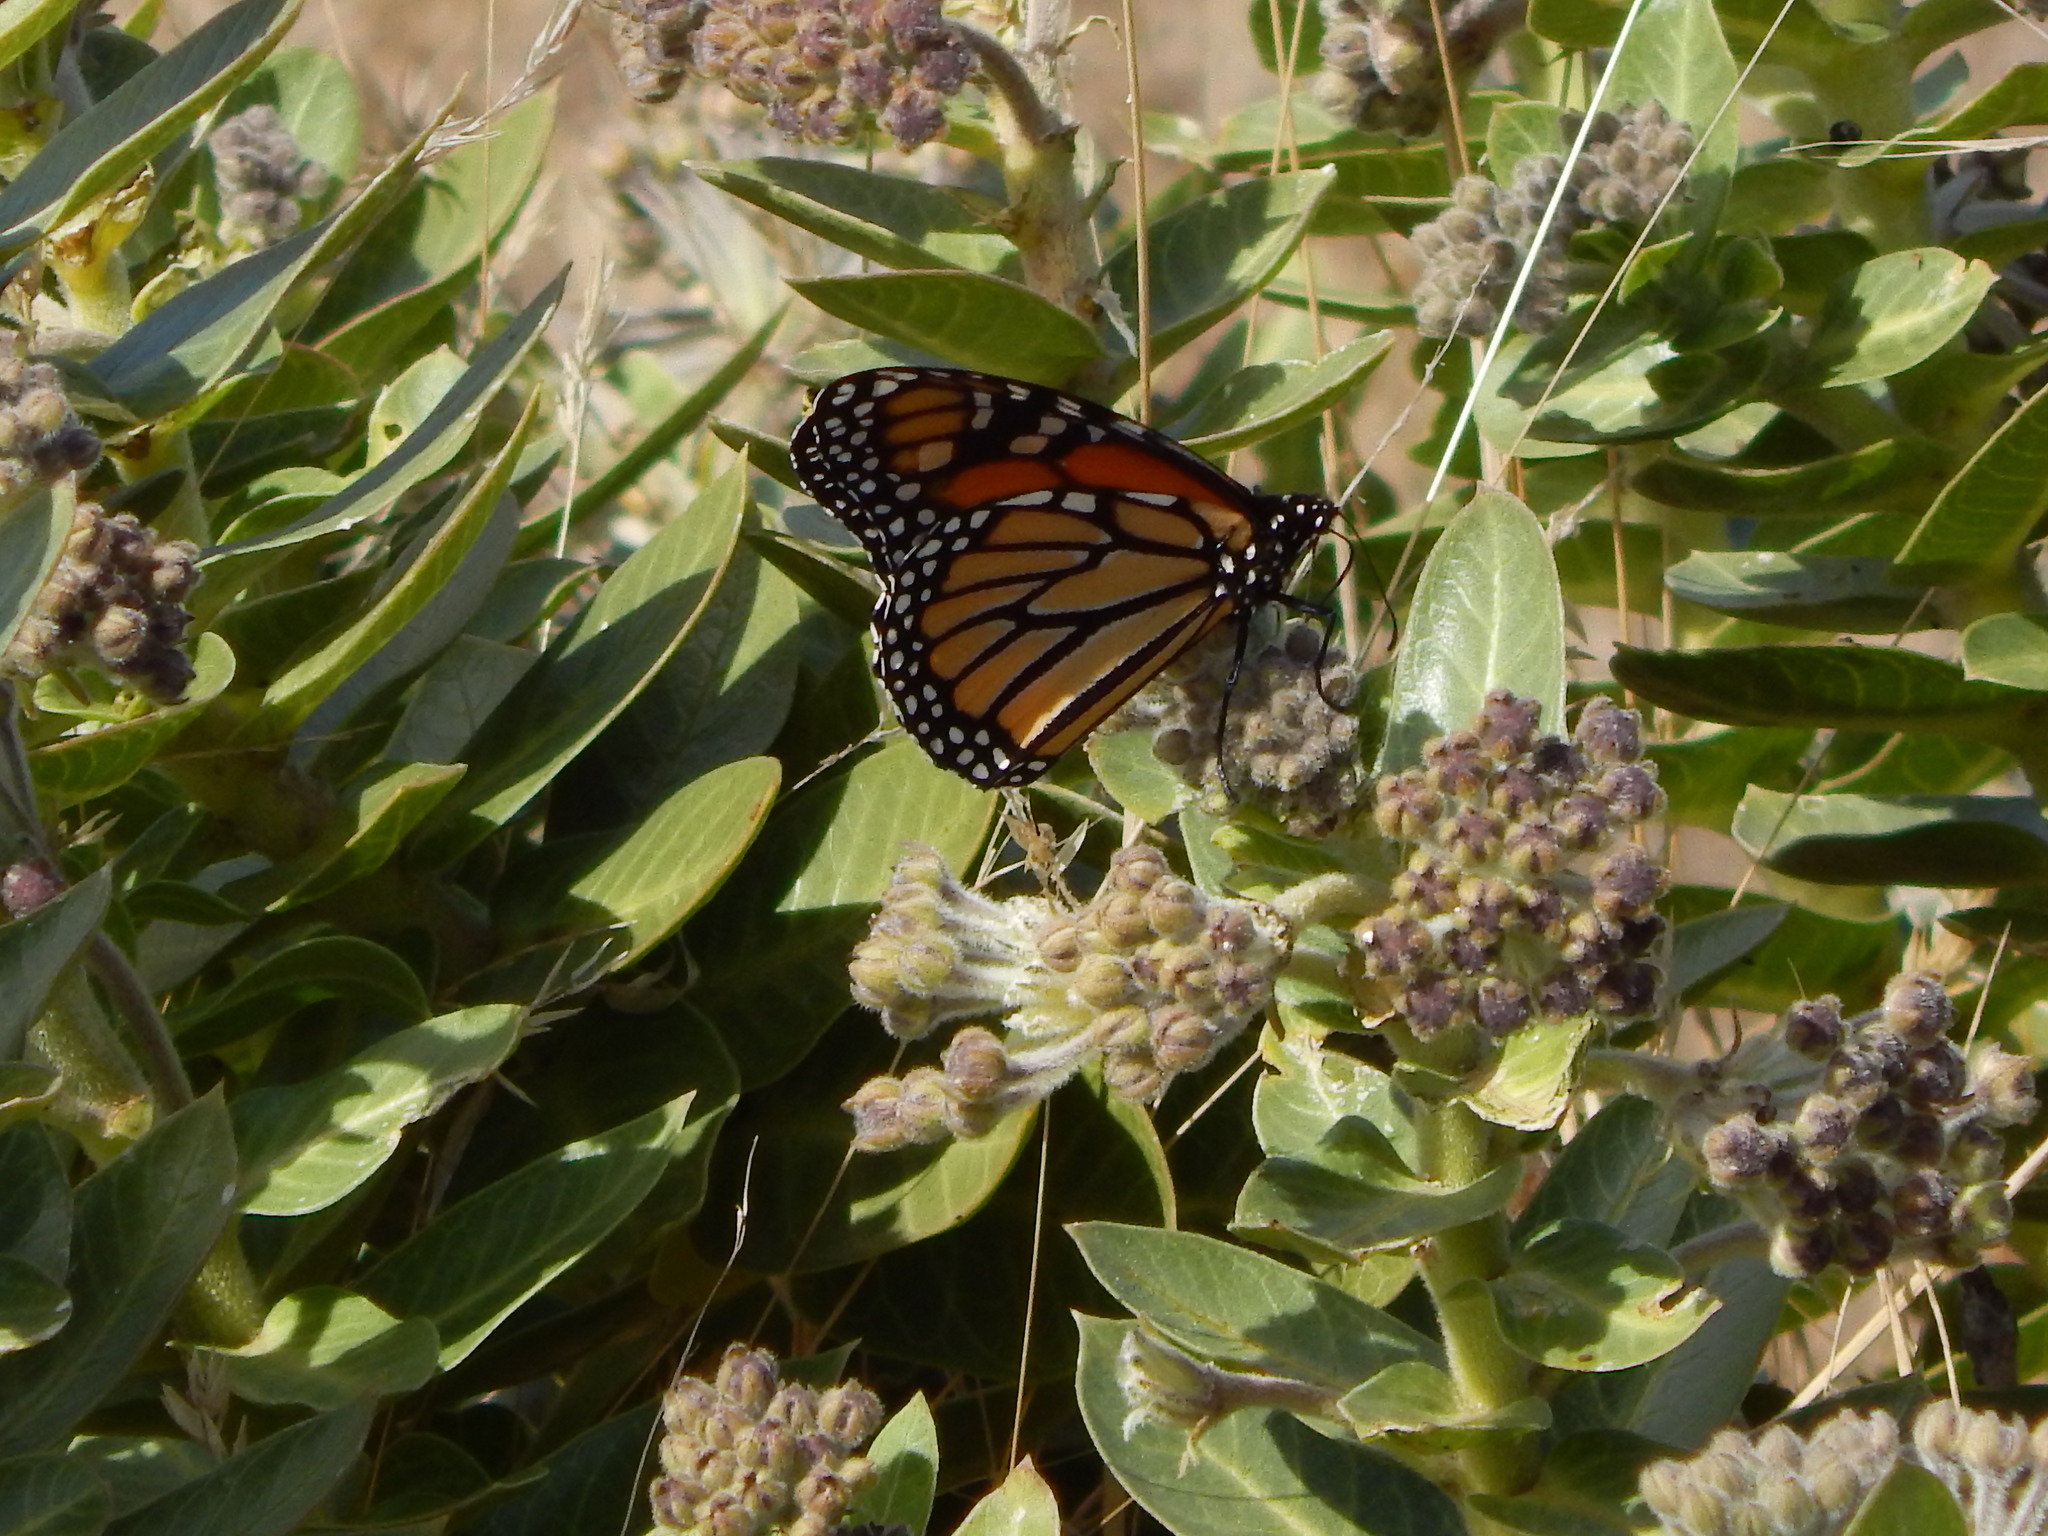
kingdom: Animalia
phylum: Arthropoda
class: Insecta
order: Lepidoptera
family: Nymphalidae
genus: Danaus
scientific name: Danaus plexippus
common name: Monarch
